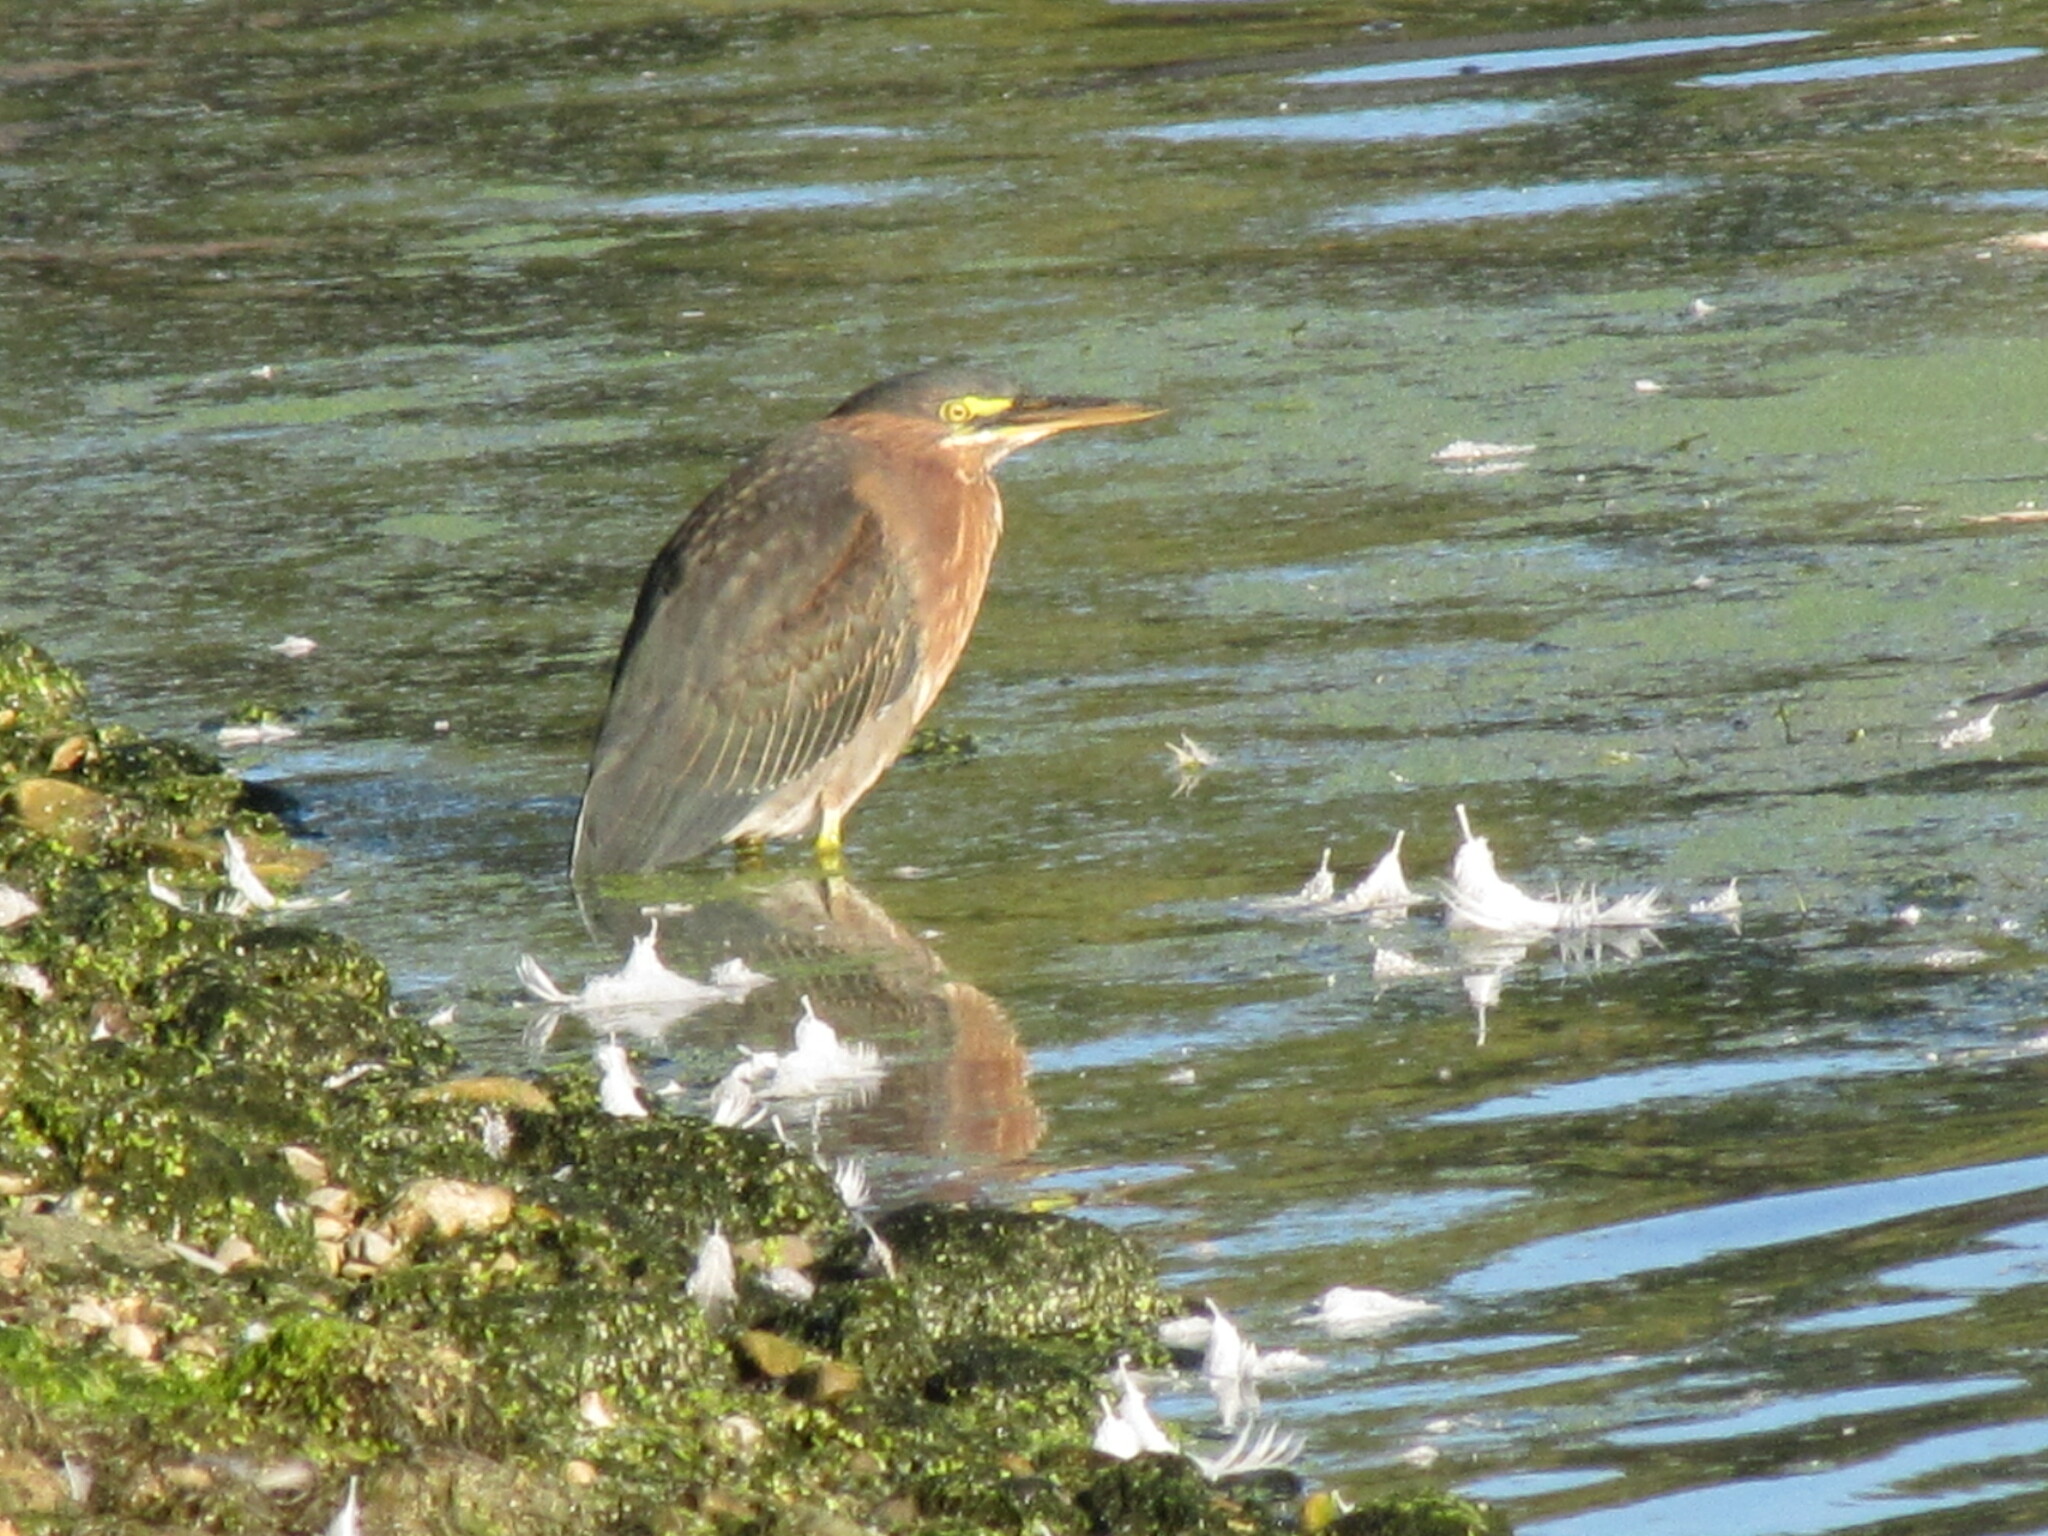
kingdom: Animalia
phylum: Chordata
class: Aves
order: Pelecaniformes
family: Ardeidae
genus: Butorides
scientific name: Butorides virescens
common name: Green heron
